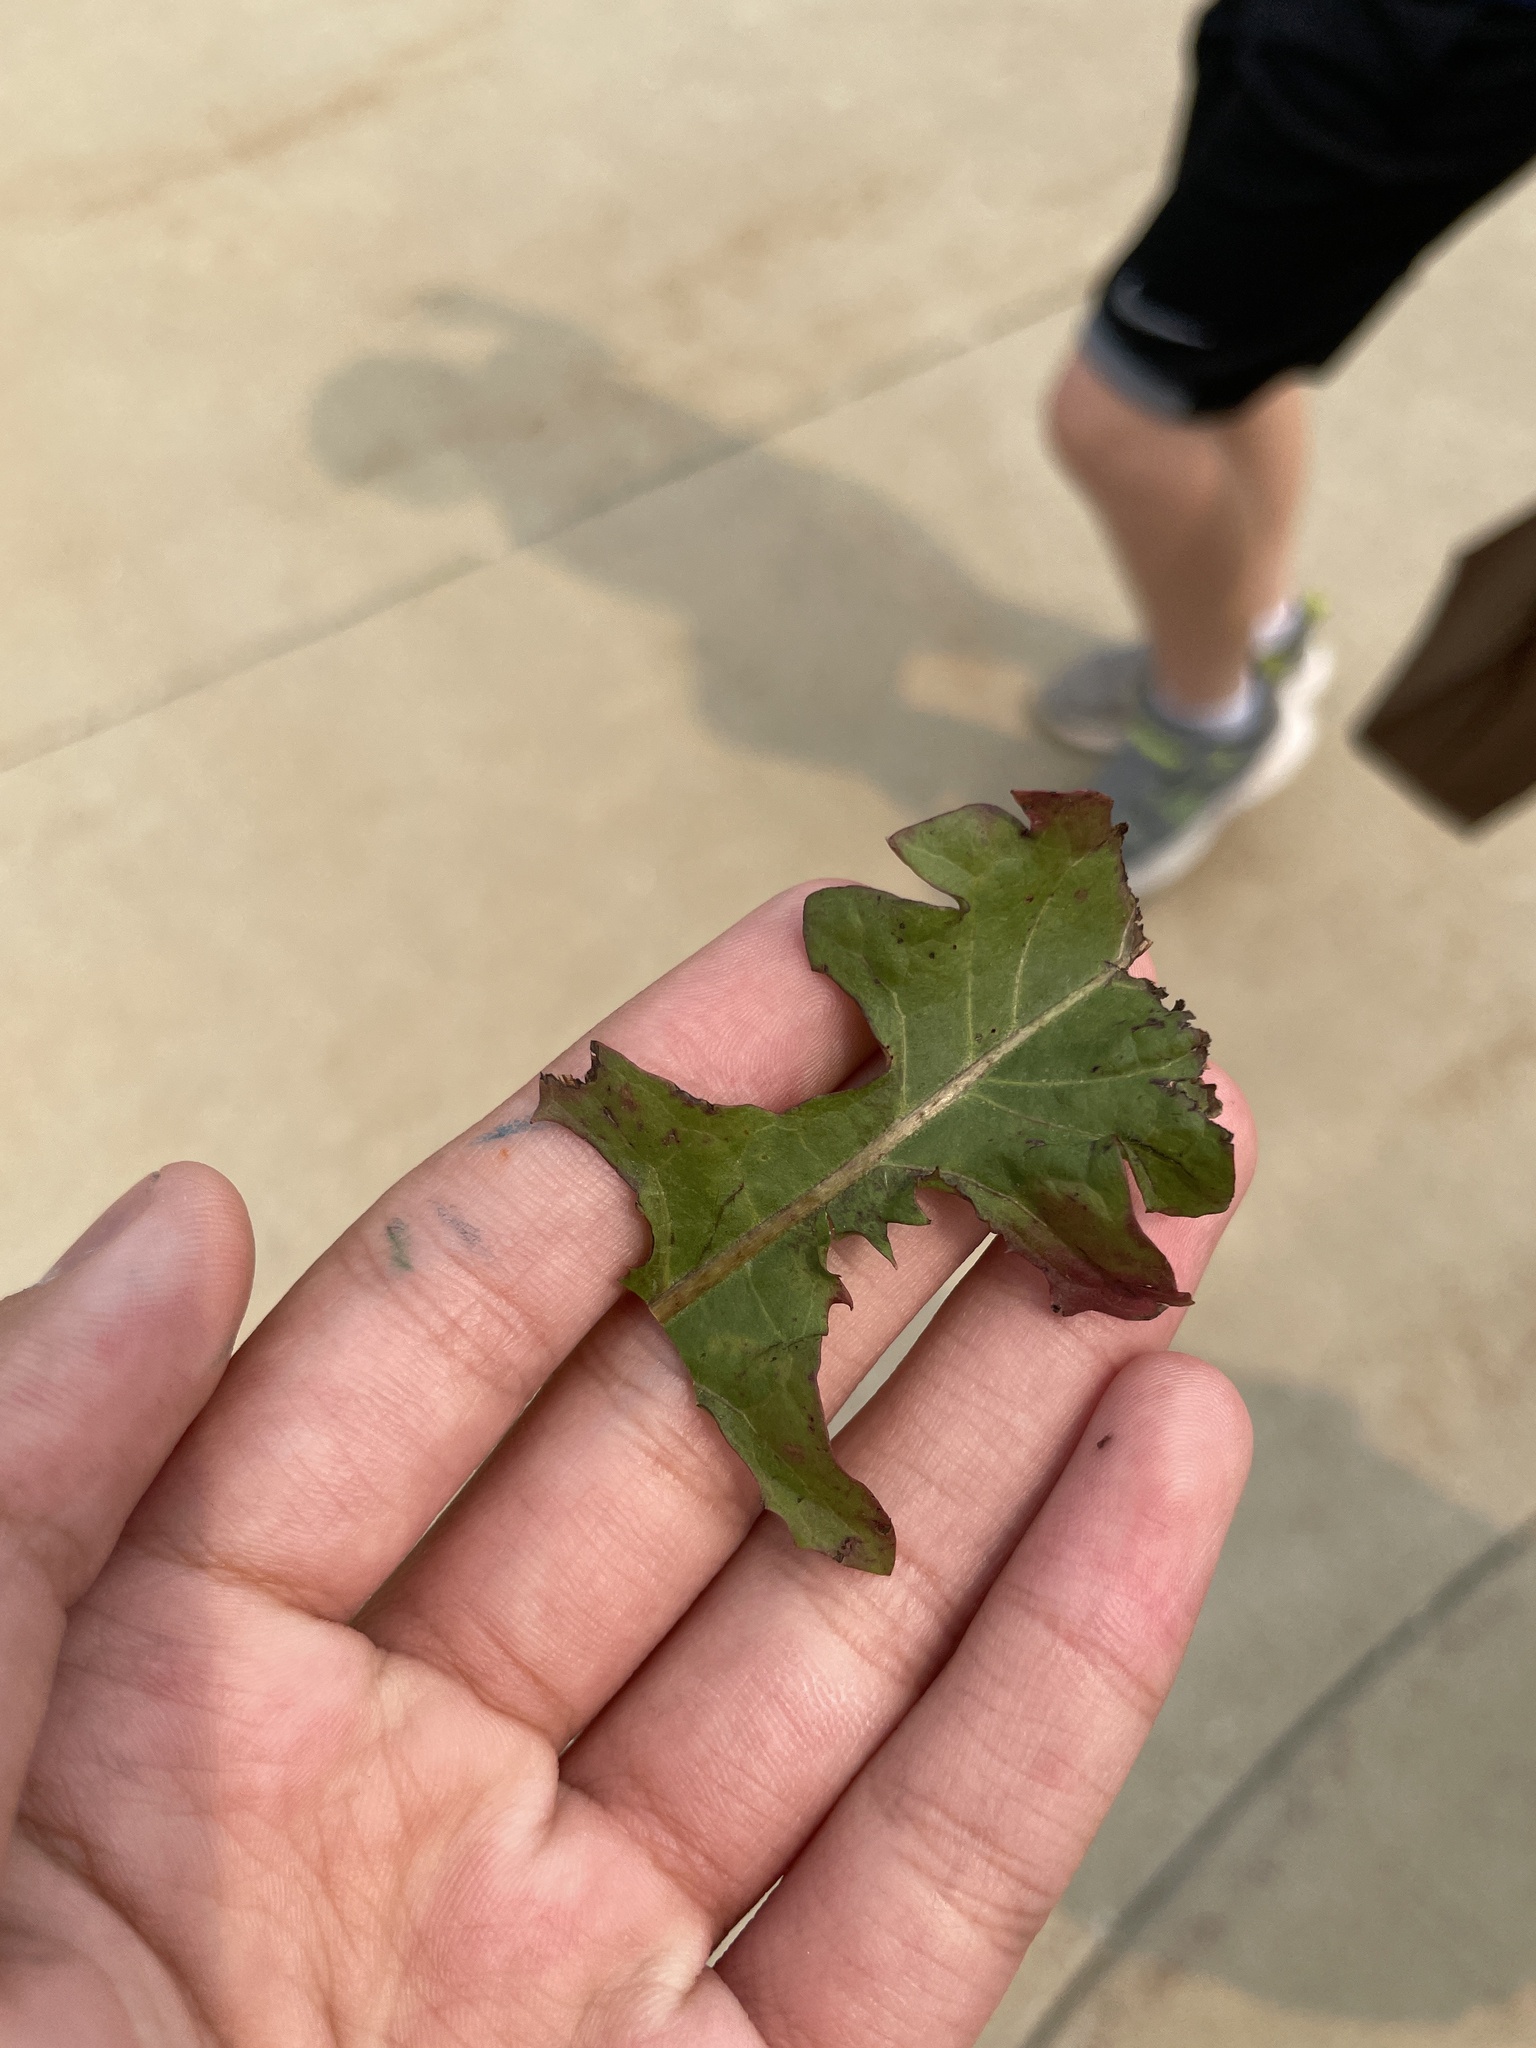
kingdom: Plantae
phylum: Tracheophyta
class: Magnoliopsida
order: Asterales
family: Asteraceae
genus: Cichorium
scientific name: Cichorium intybus
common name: Chicory
